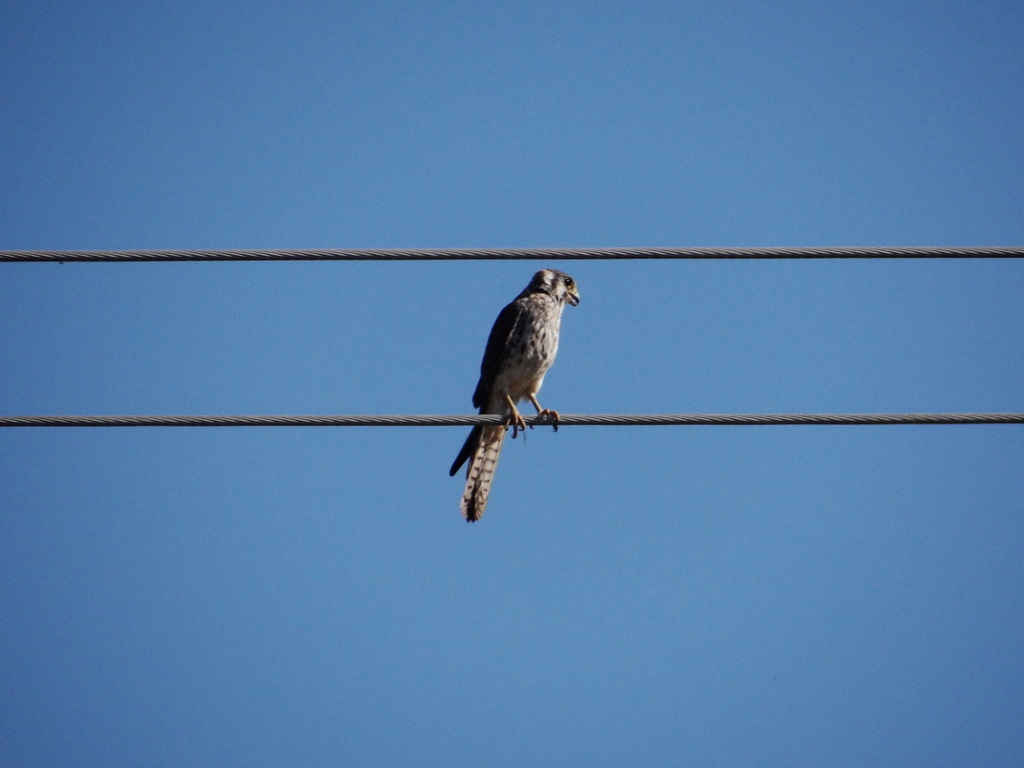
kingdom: Animalia
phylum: Chordata
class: Aves
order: Falconiformes
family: Falconidae
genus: Falco
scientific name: Falco sparverius
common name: American kestrel
